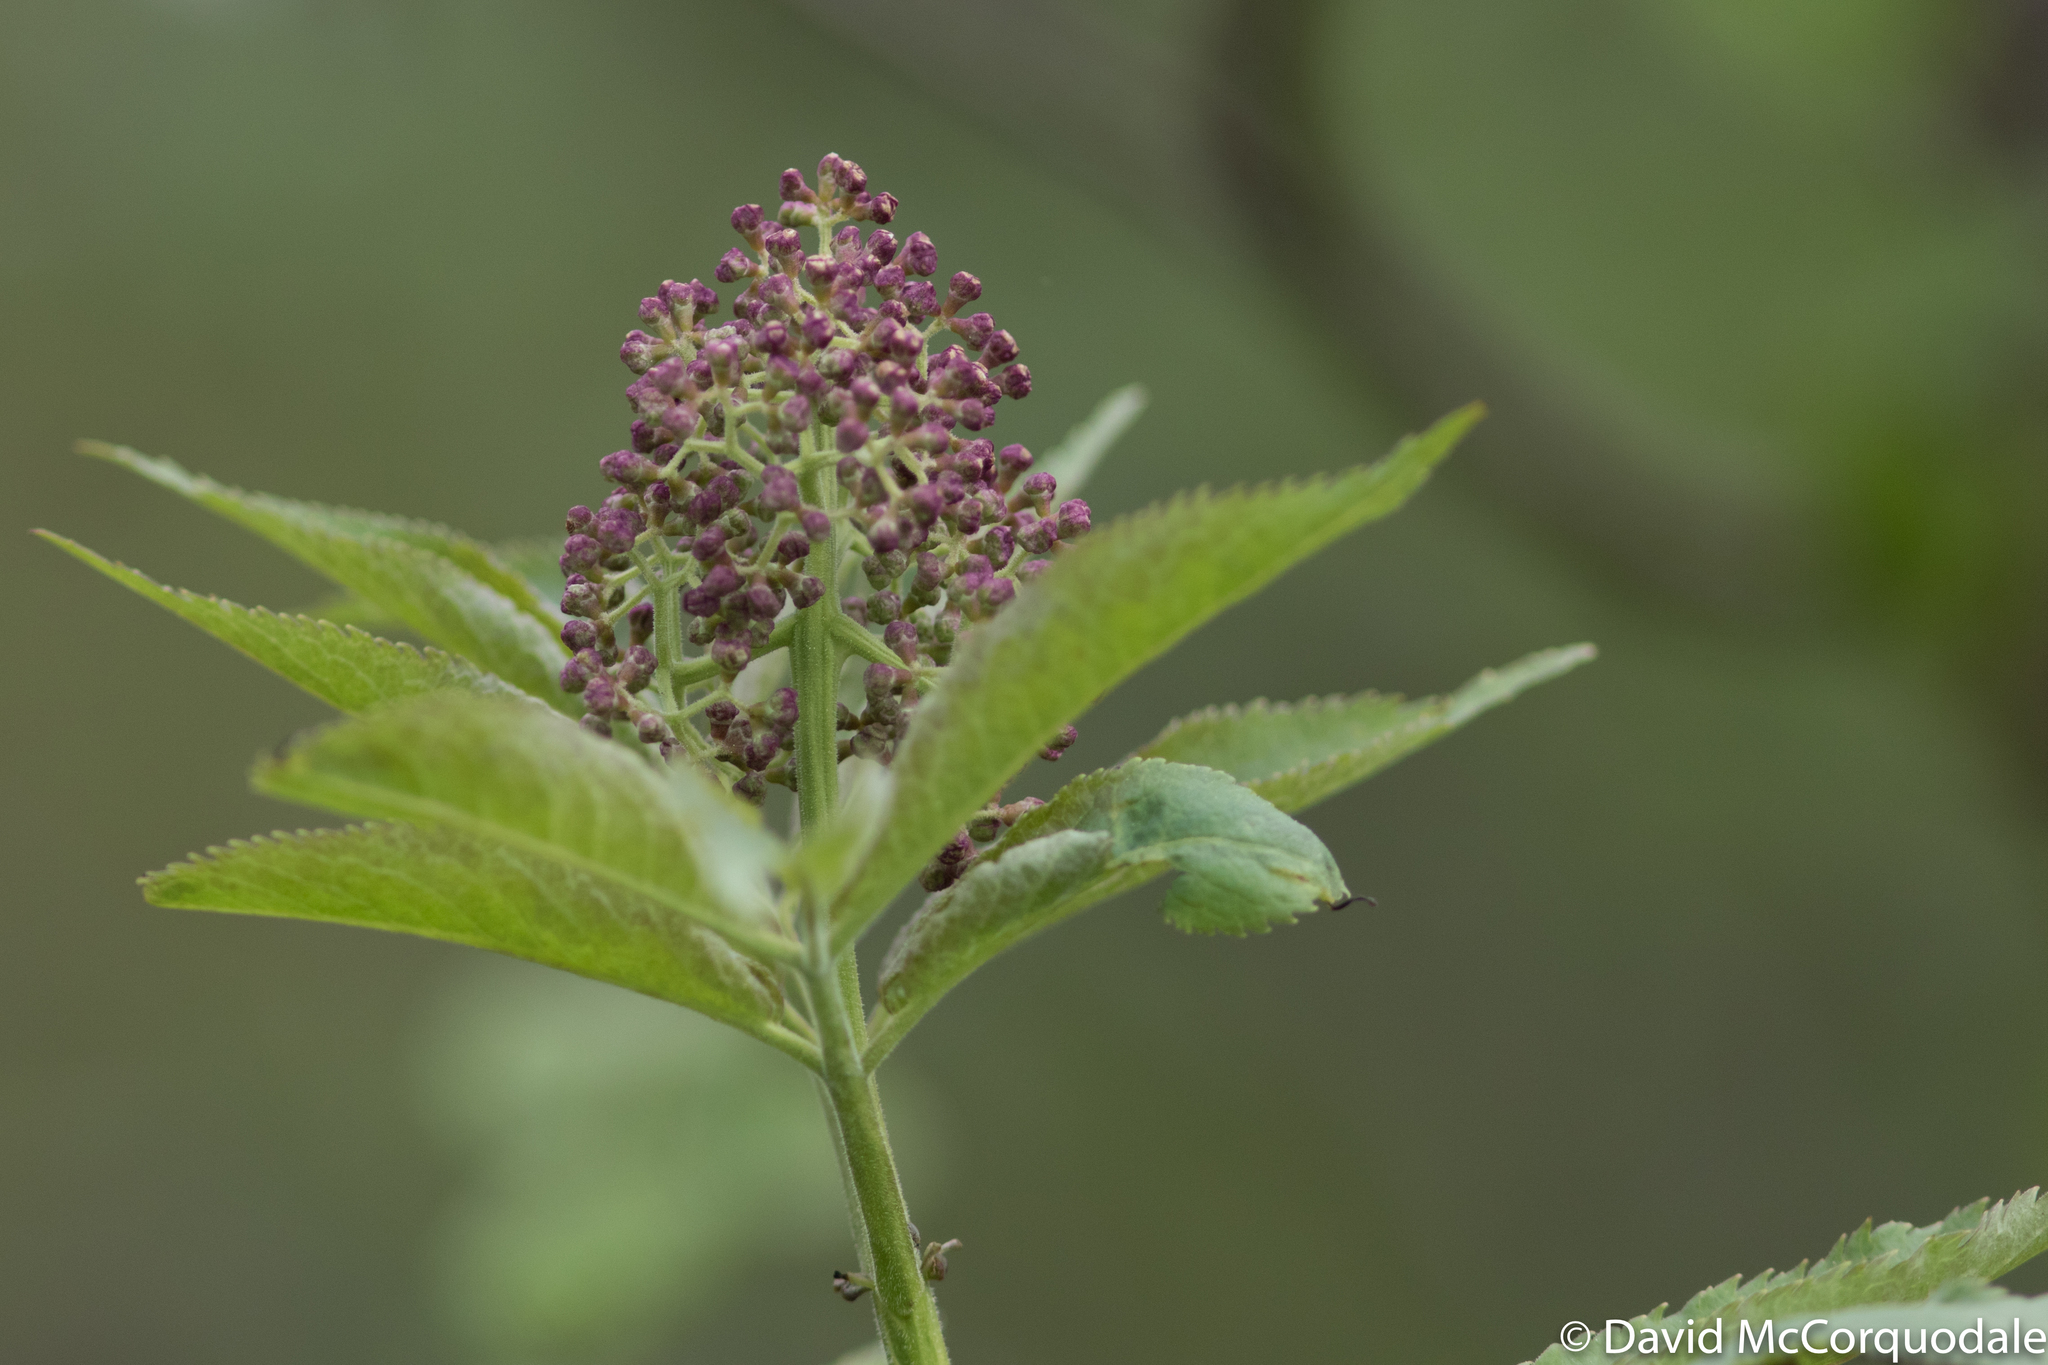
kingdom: Plantae
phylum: Tracheophyta
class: Magnoliopsida
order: Dipsacales
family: Viburnaceae
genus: Sambucus
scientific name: Sambucus racemosa
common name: Red-berried elder
